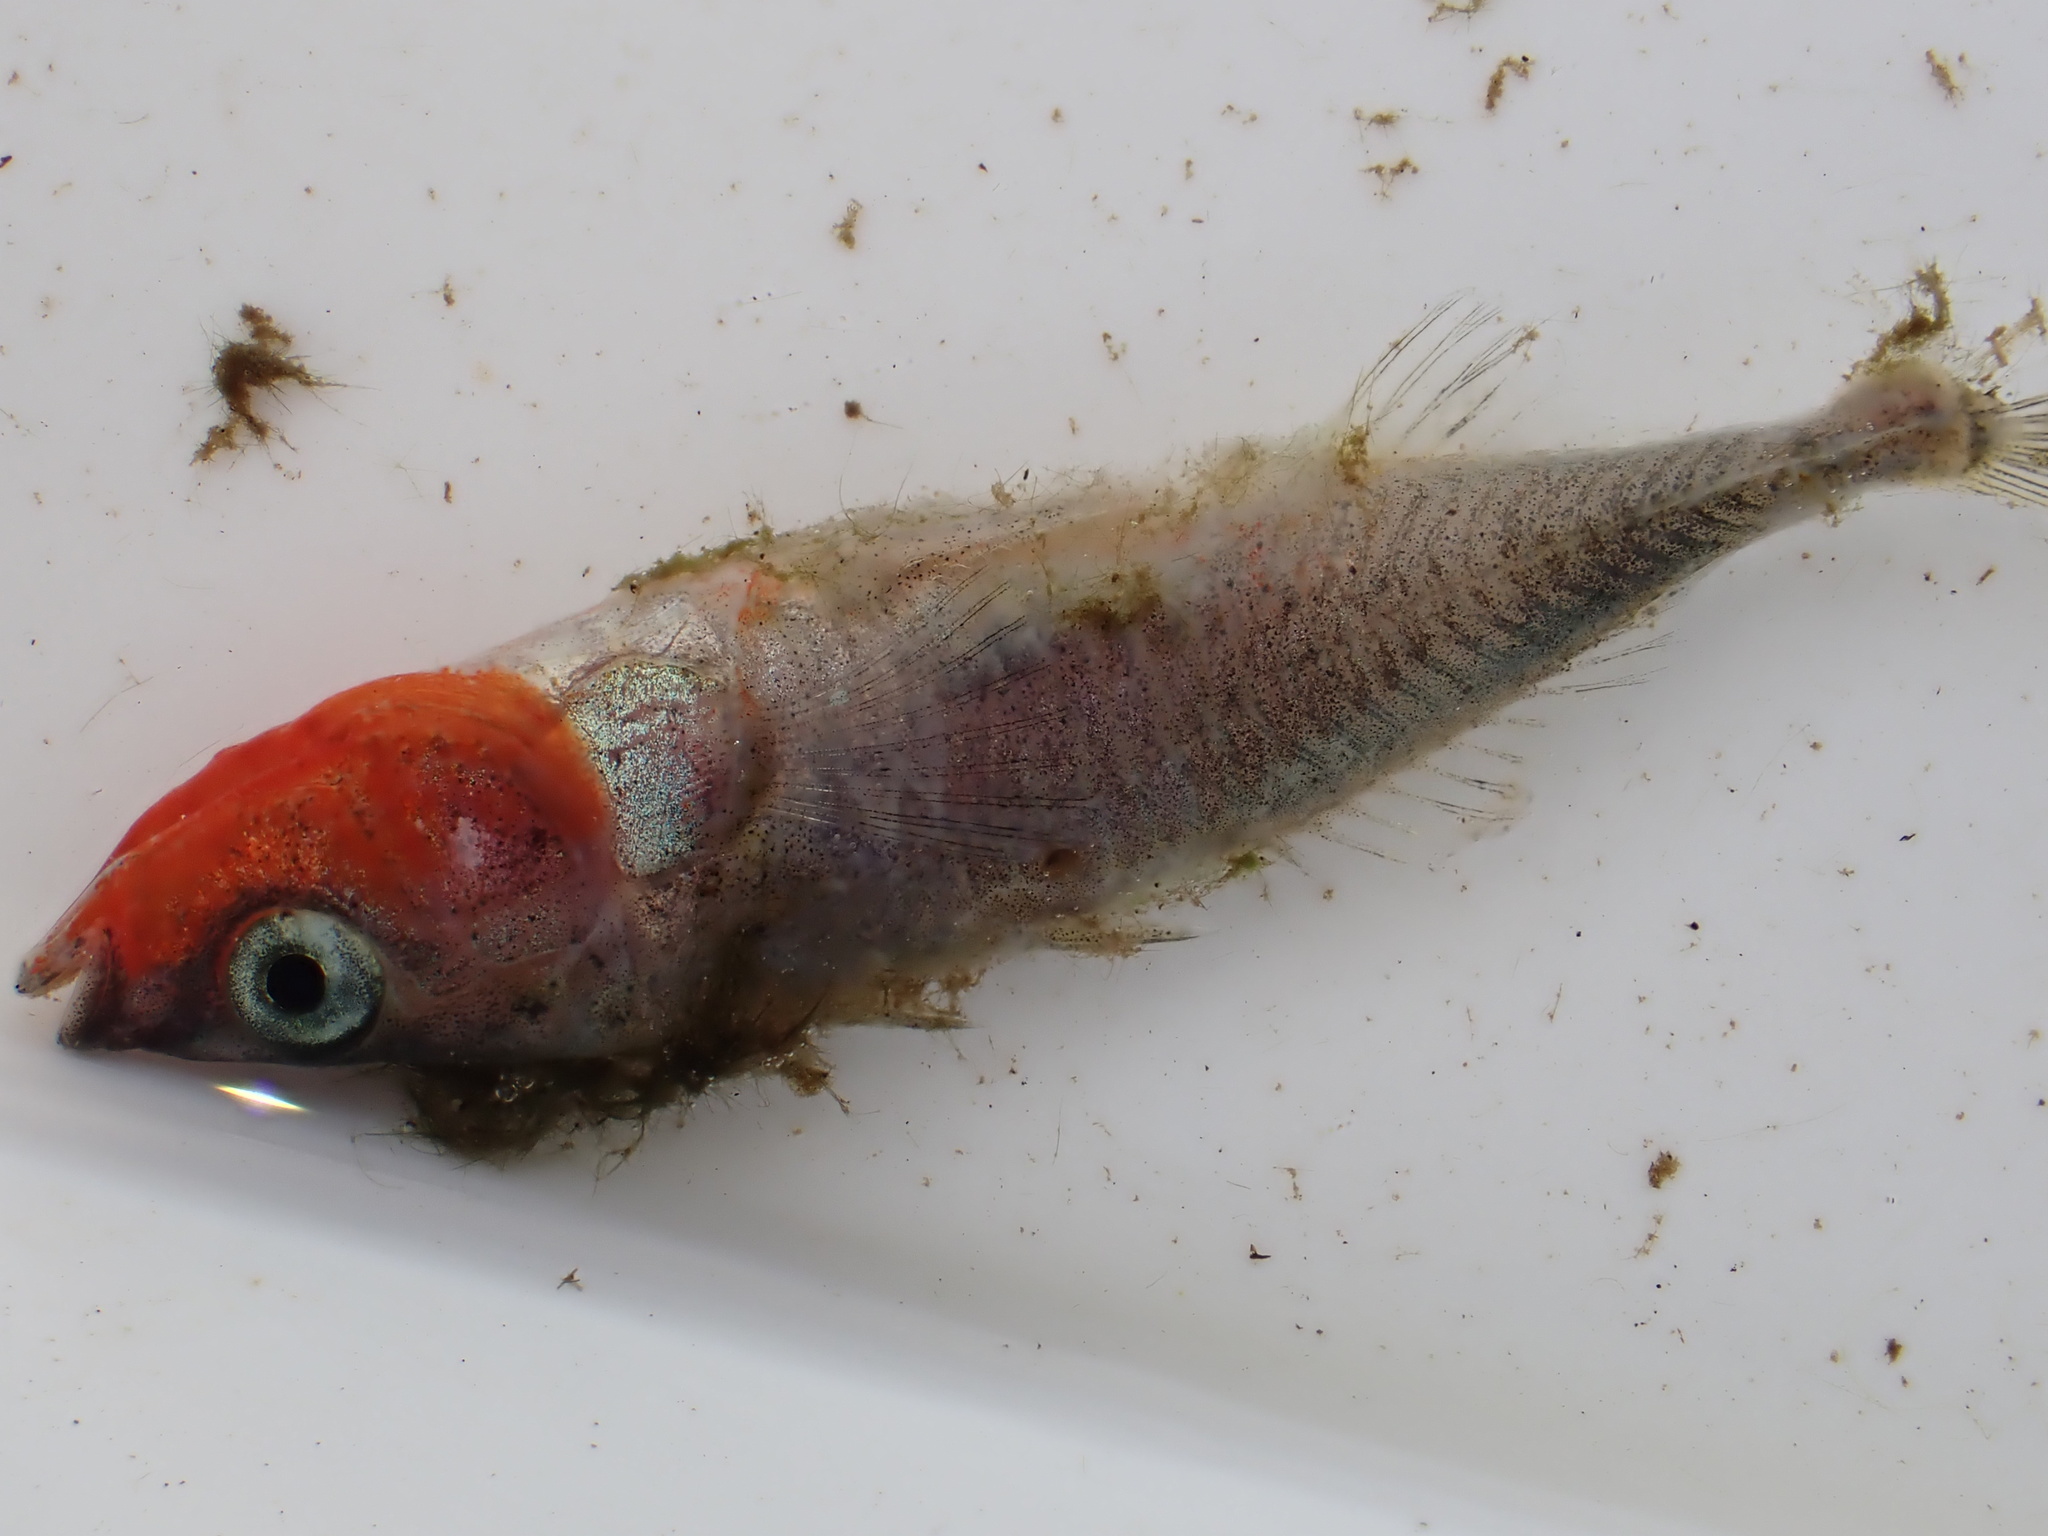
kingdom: Animalia
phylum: Chordata
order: Gasterosteiformes
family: Gasterosteidae
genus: Gasterosteus
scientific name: Gasterosteus aculeatus
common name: Three-spined stickleback
